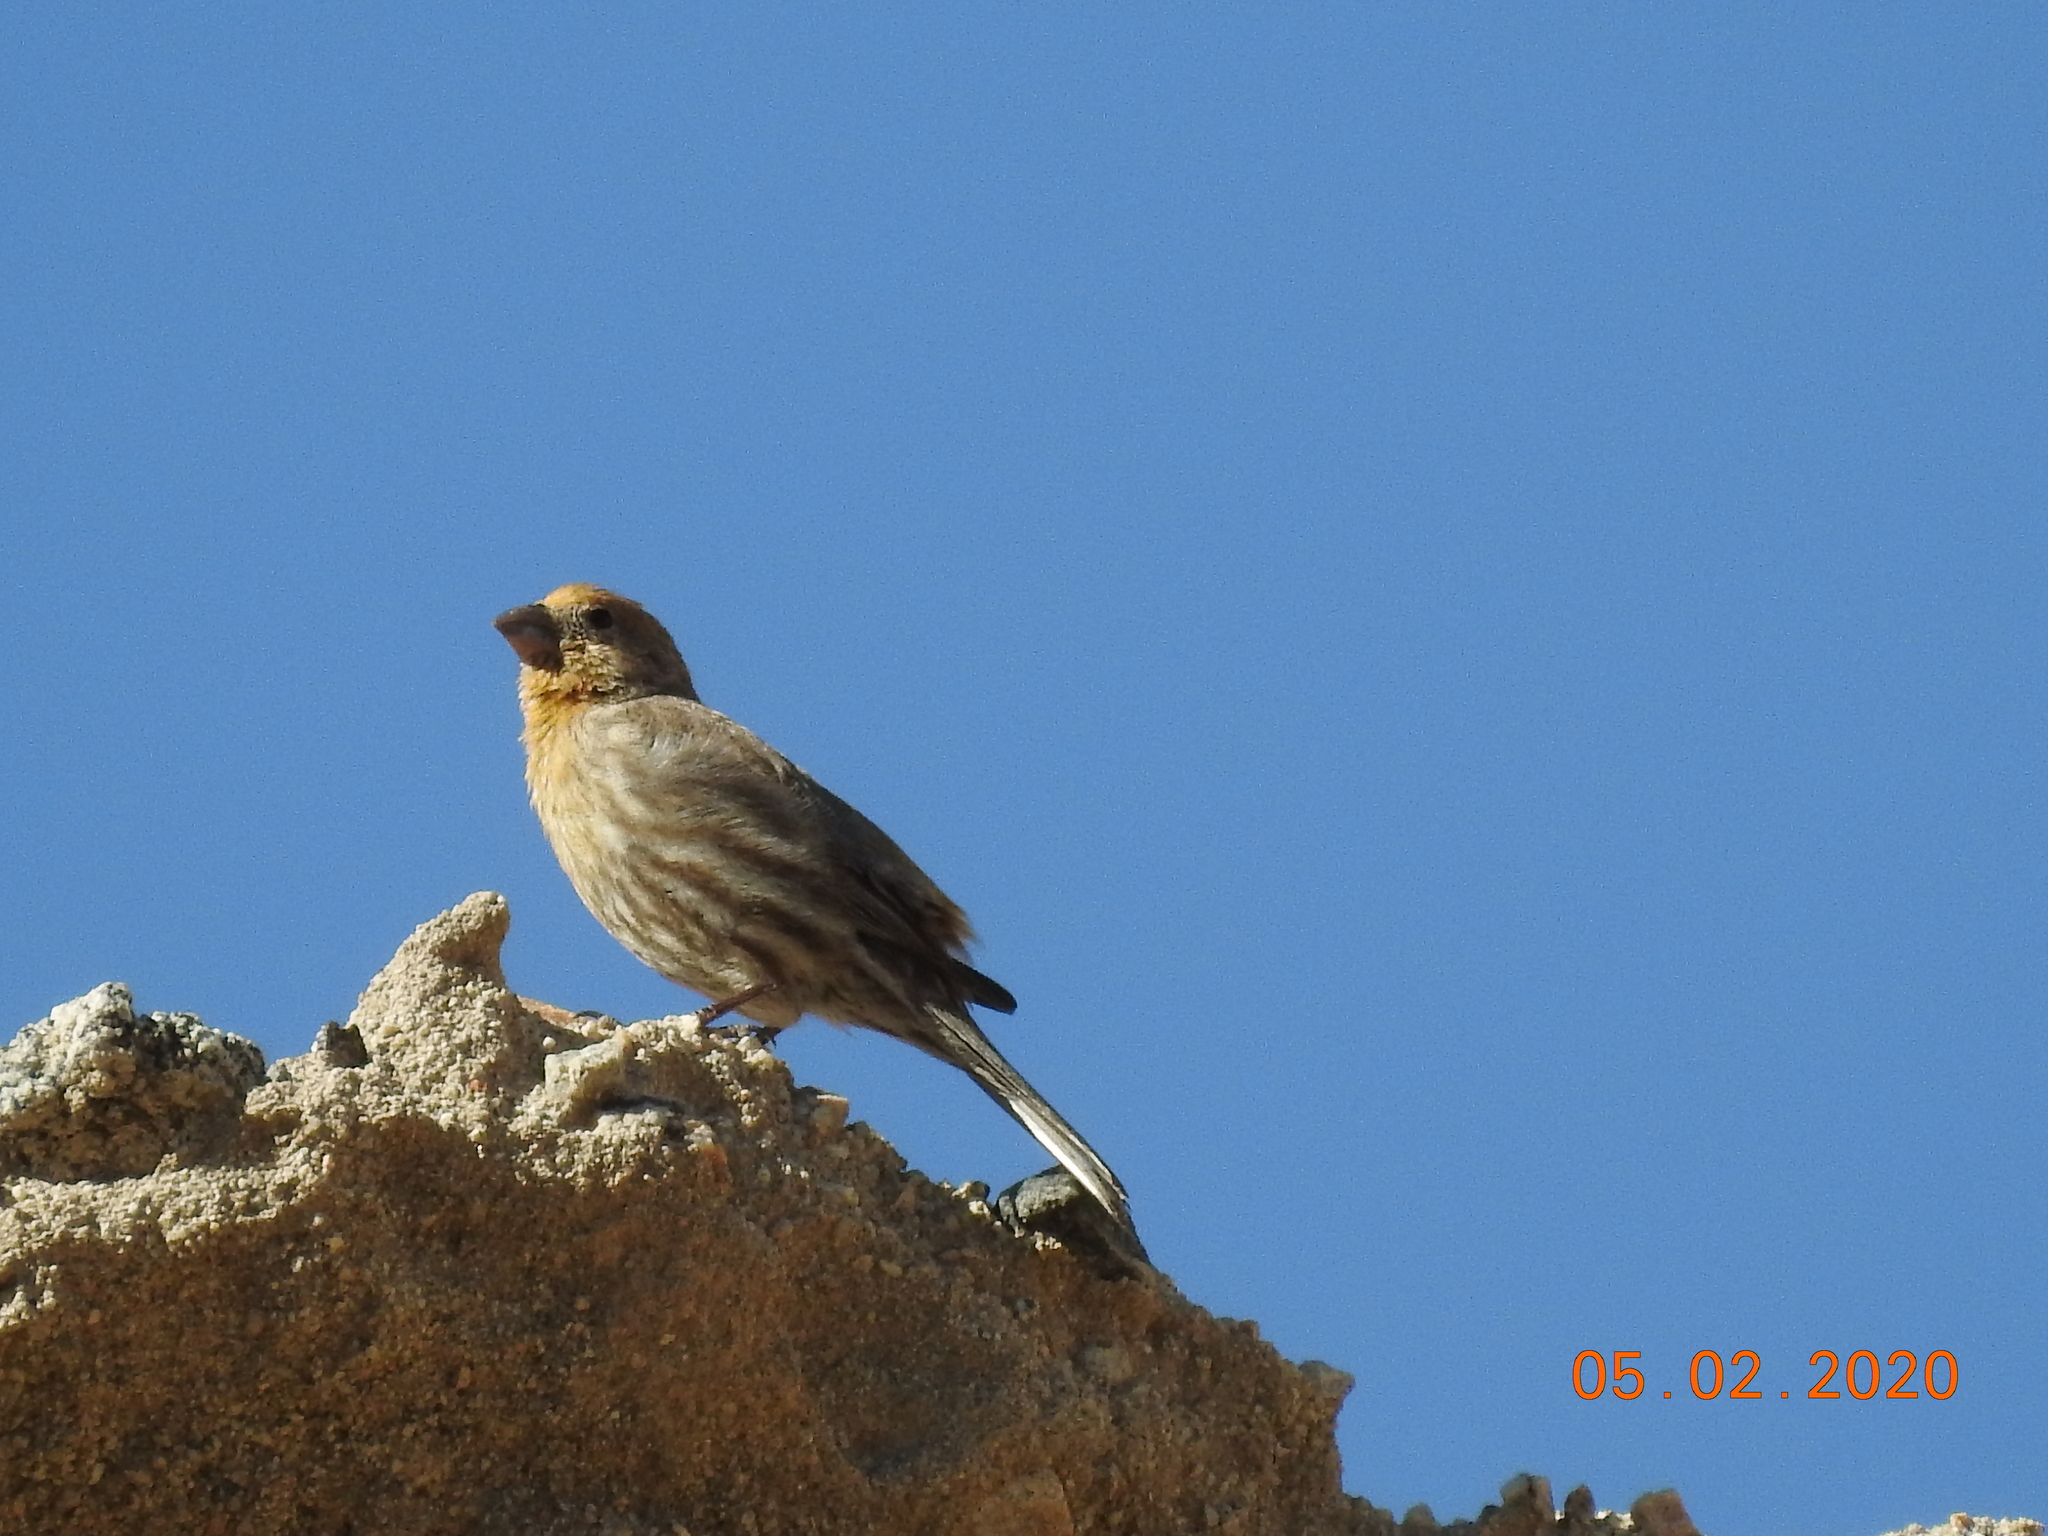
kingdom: Animalia
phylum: Chordata
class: Aves
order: Passeriformes
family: Fringillidae
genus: Haemorhous
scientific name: Haemorhous mexicanus
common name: House finch
